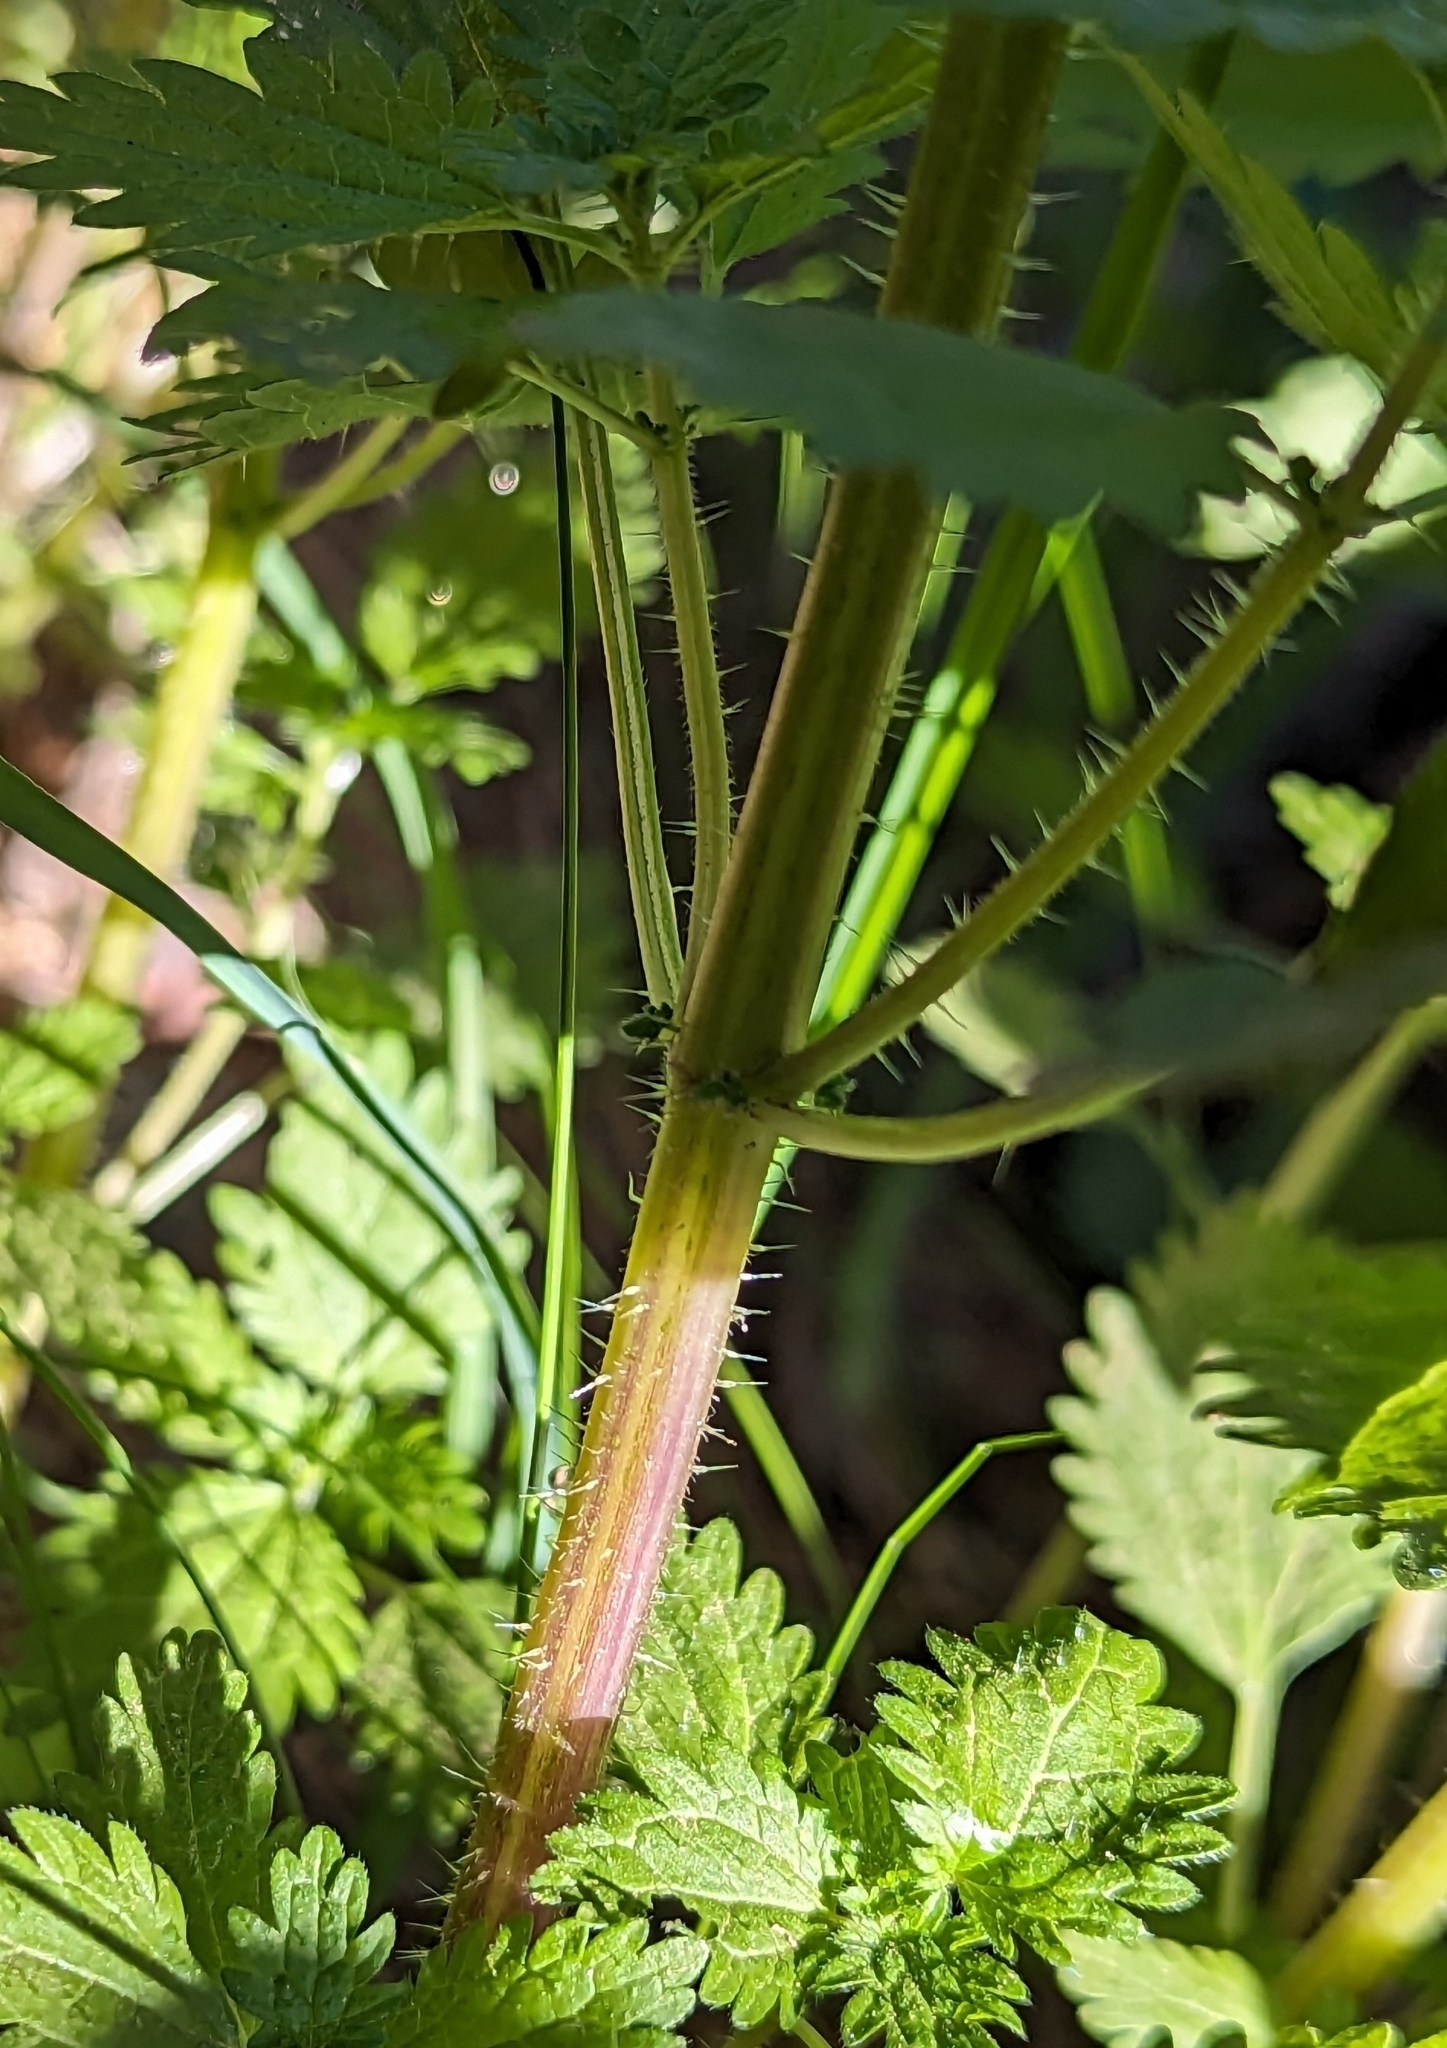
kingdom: Plantae
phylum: Tracheophyta
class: Magnoliopsida
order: Rosales
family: Urticaceae
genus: Urtica
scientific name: Urtica urens
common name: Dwarf nettle
